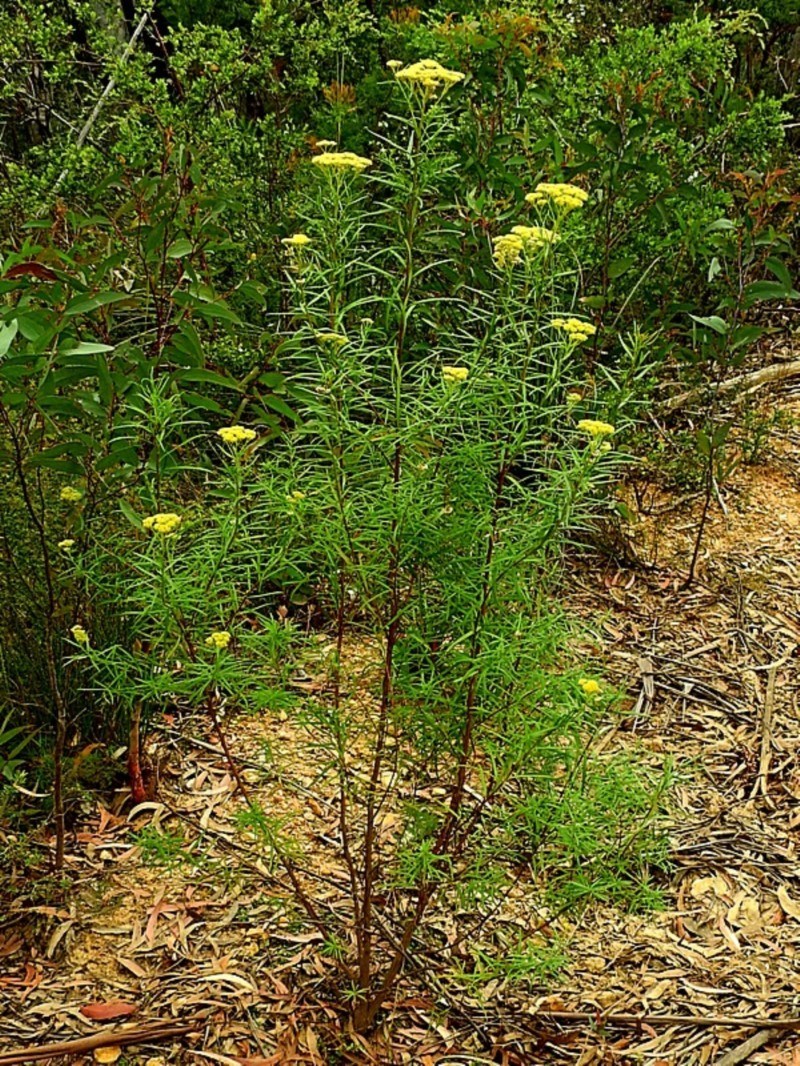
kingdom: Plantae
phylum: Tracheophyta
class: Magnoliopsida
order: Asterales
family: Asteraceae
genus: Cassinia
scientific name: Cassinia aureonitens
